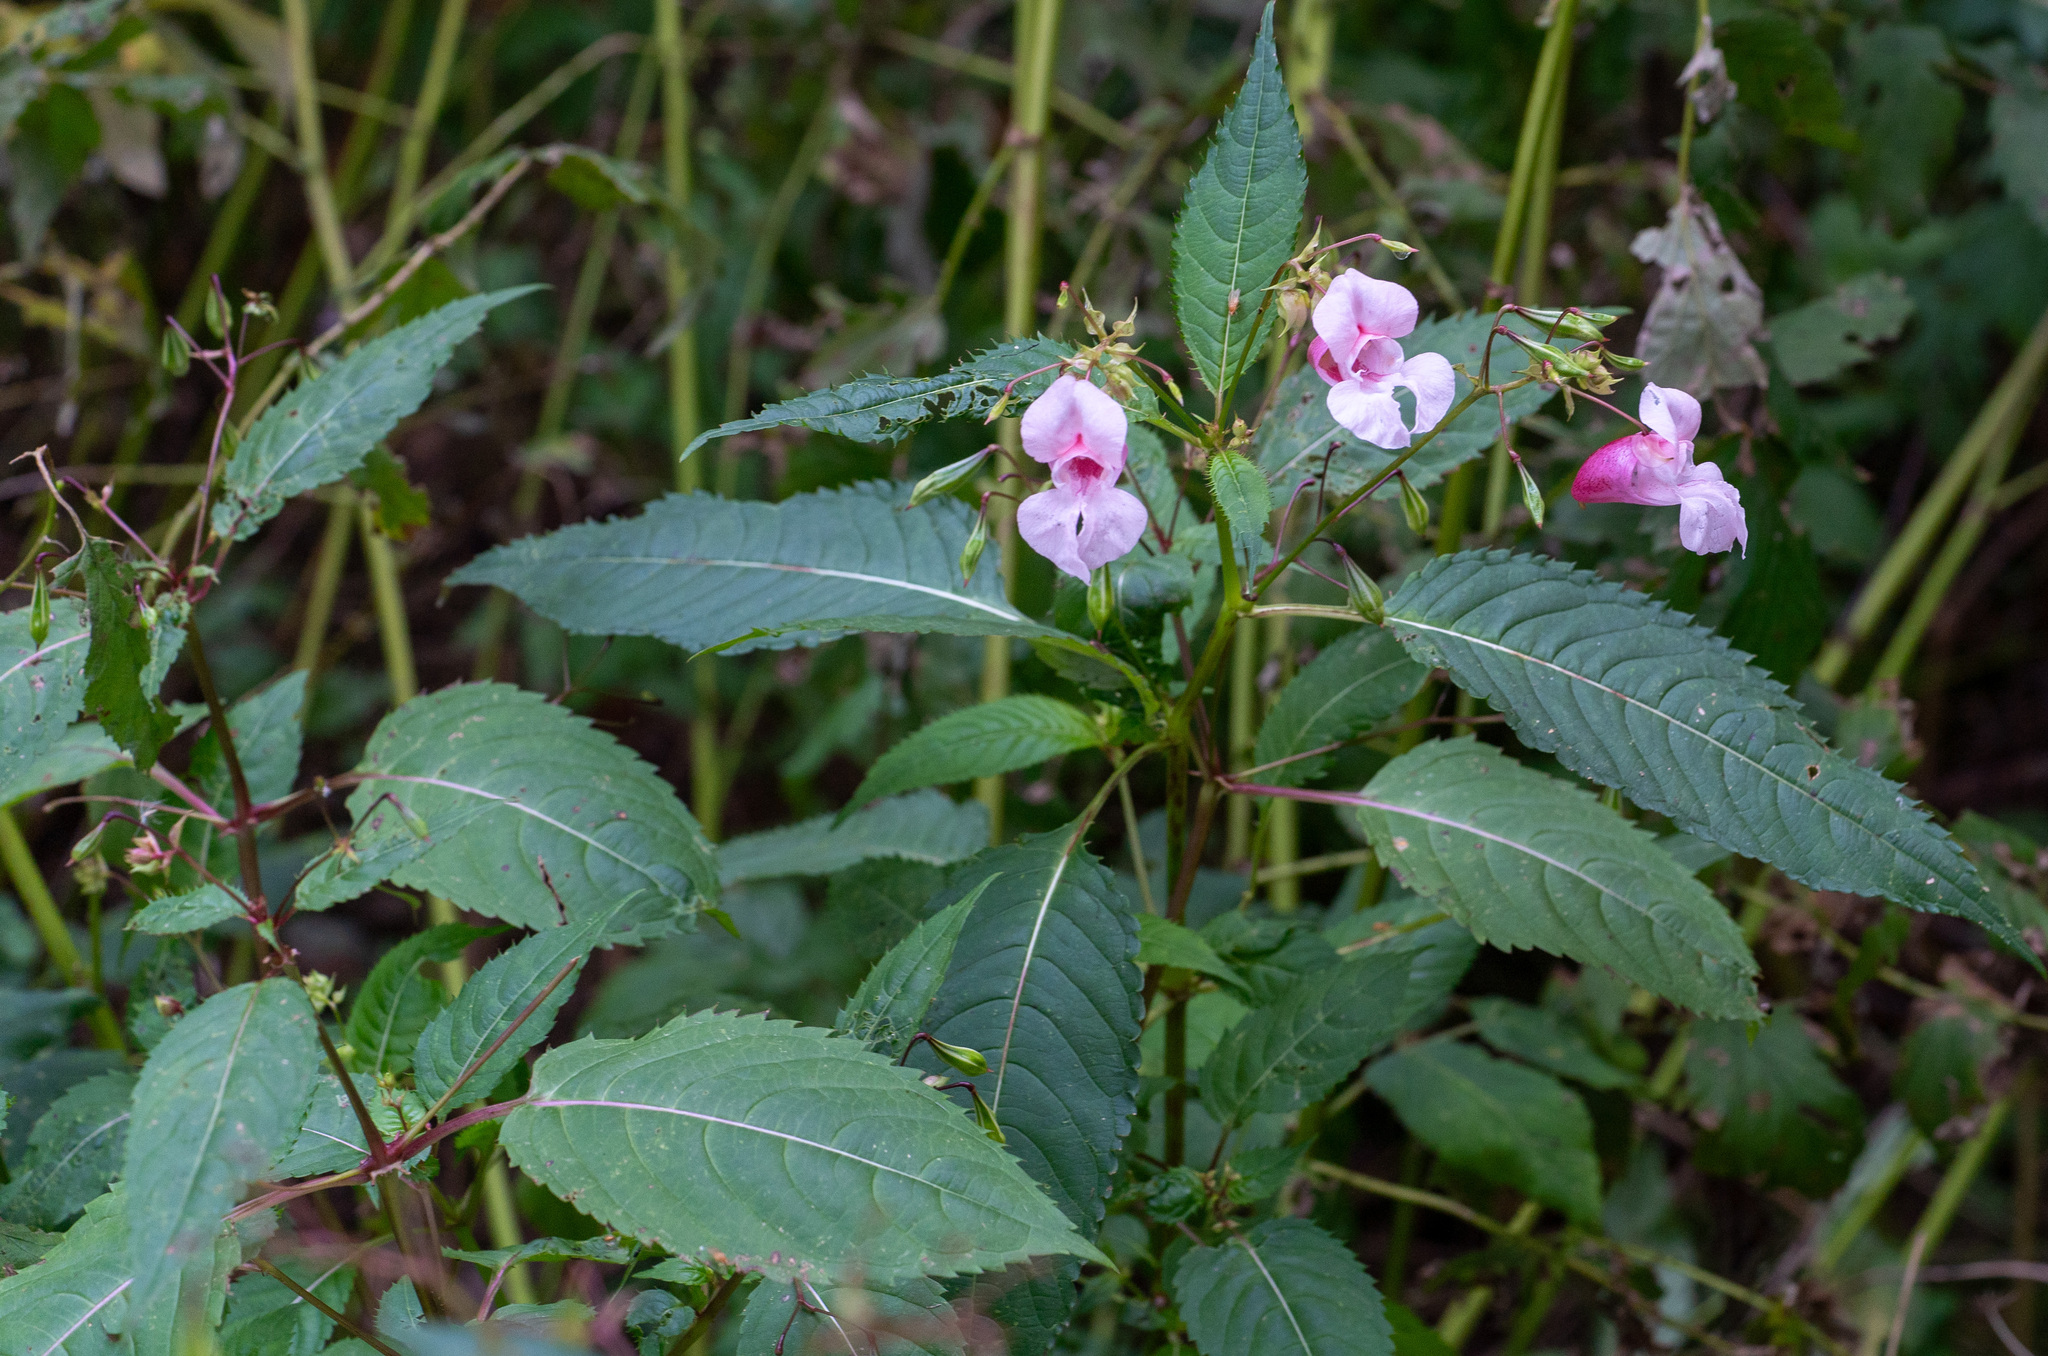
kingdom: Plantae
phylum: Tracheophyta
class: Magnoliopsida
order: Ericales
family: Balsaminaceae
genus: Impatiens
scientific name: Impatiens glandulifera
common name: Himalayan balsam
